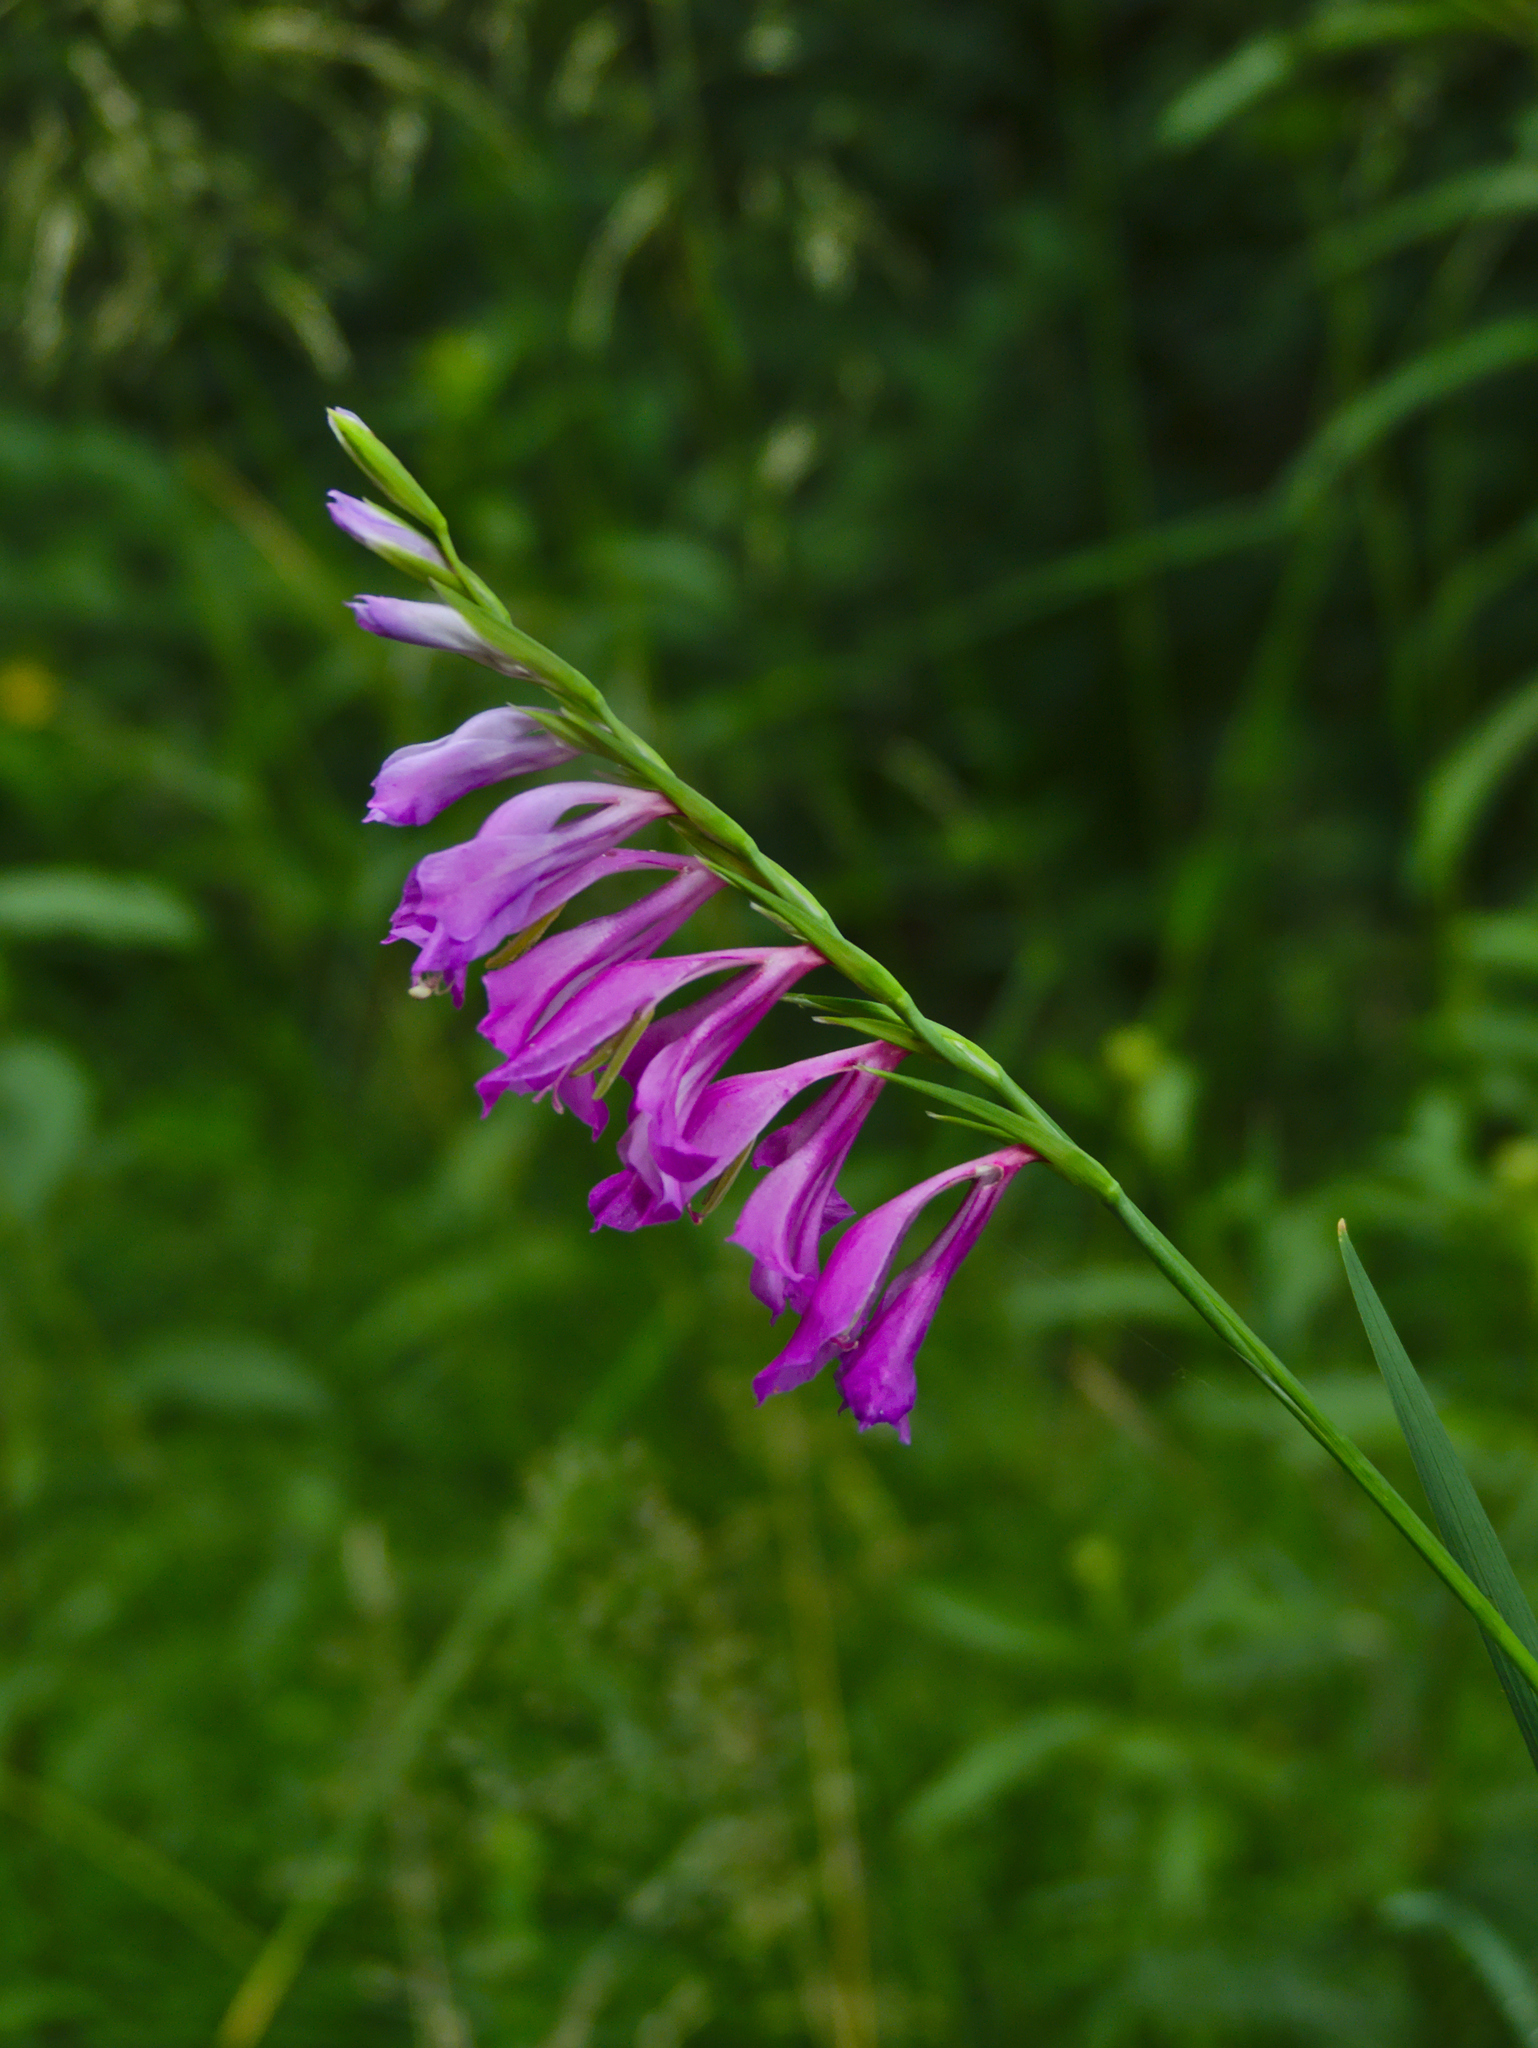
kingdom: Plantae
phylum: Tracheophyta
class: Liliopsida
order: Asparagales
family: Iridaceae
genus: Gladiolus
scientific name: Gladiolus imbricatus
